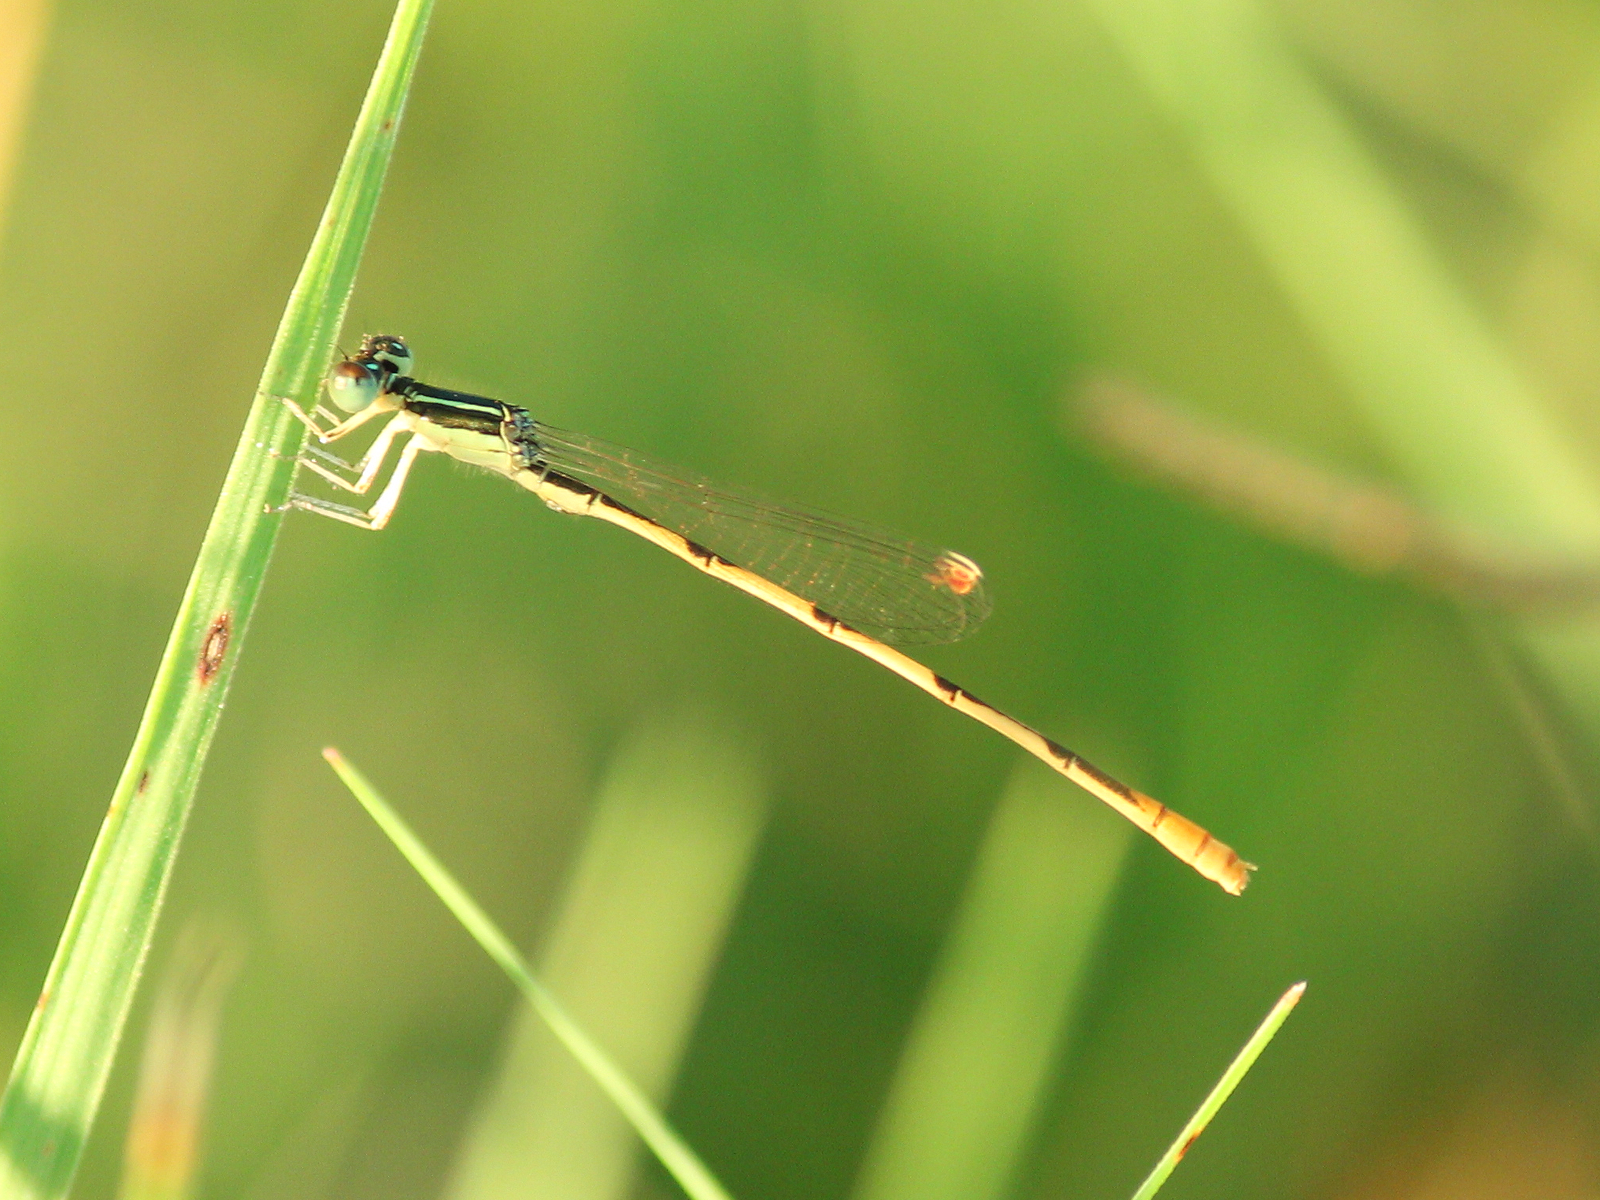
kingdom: Animalia
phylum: Arthropoda
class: Insecta
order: Odonata
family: Coenagrionidae
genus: Ischnura
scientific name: Ischnura hastata
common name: Citrine forktail
